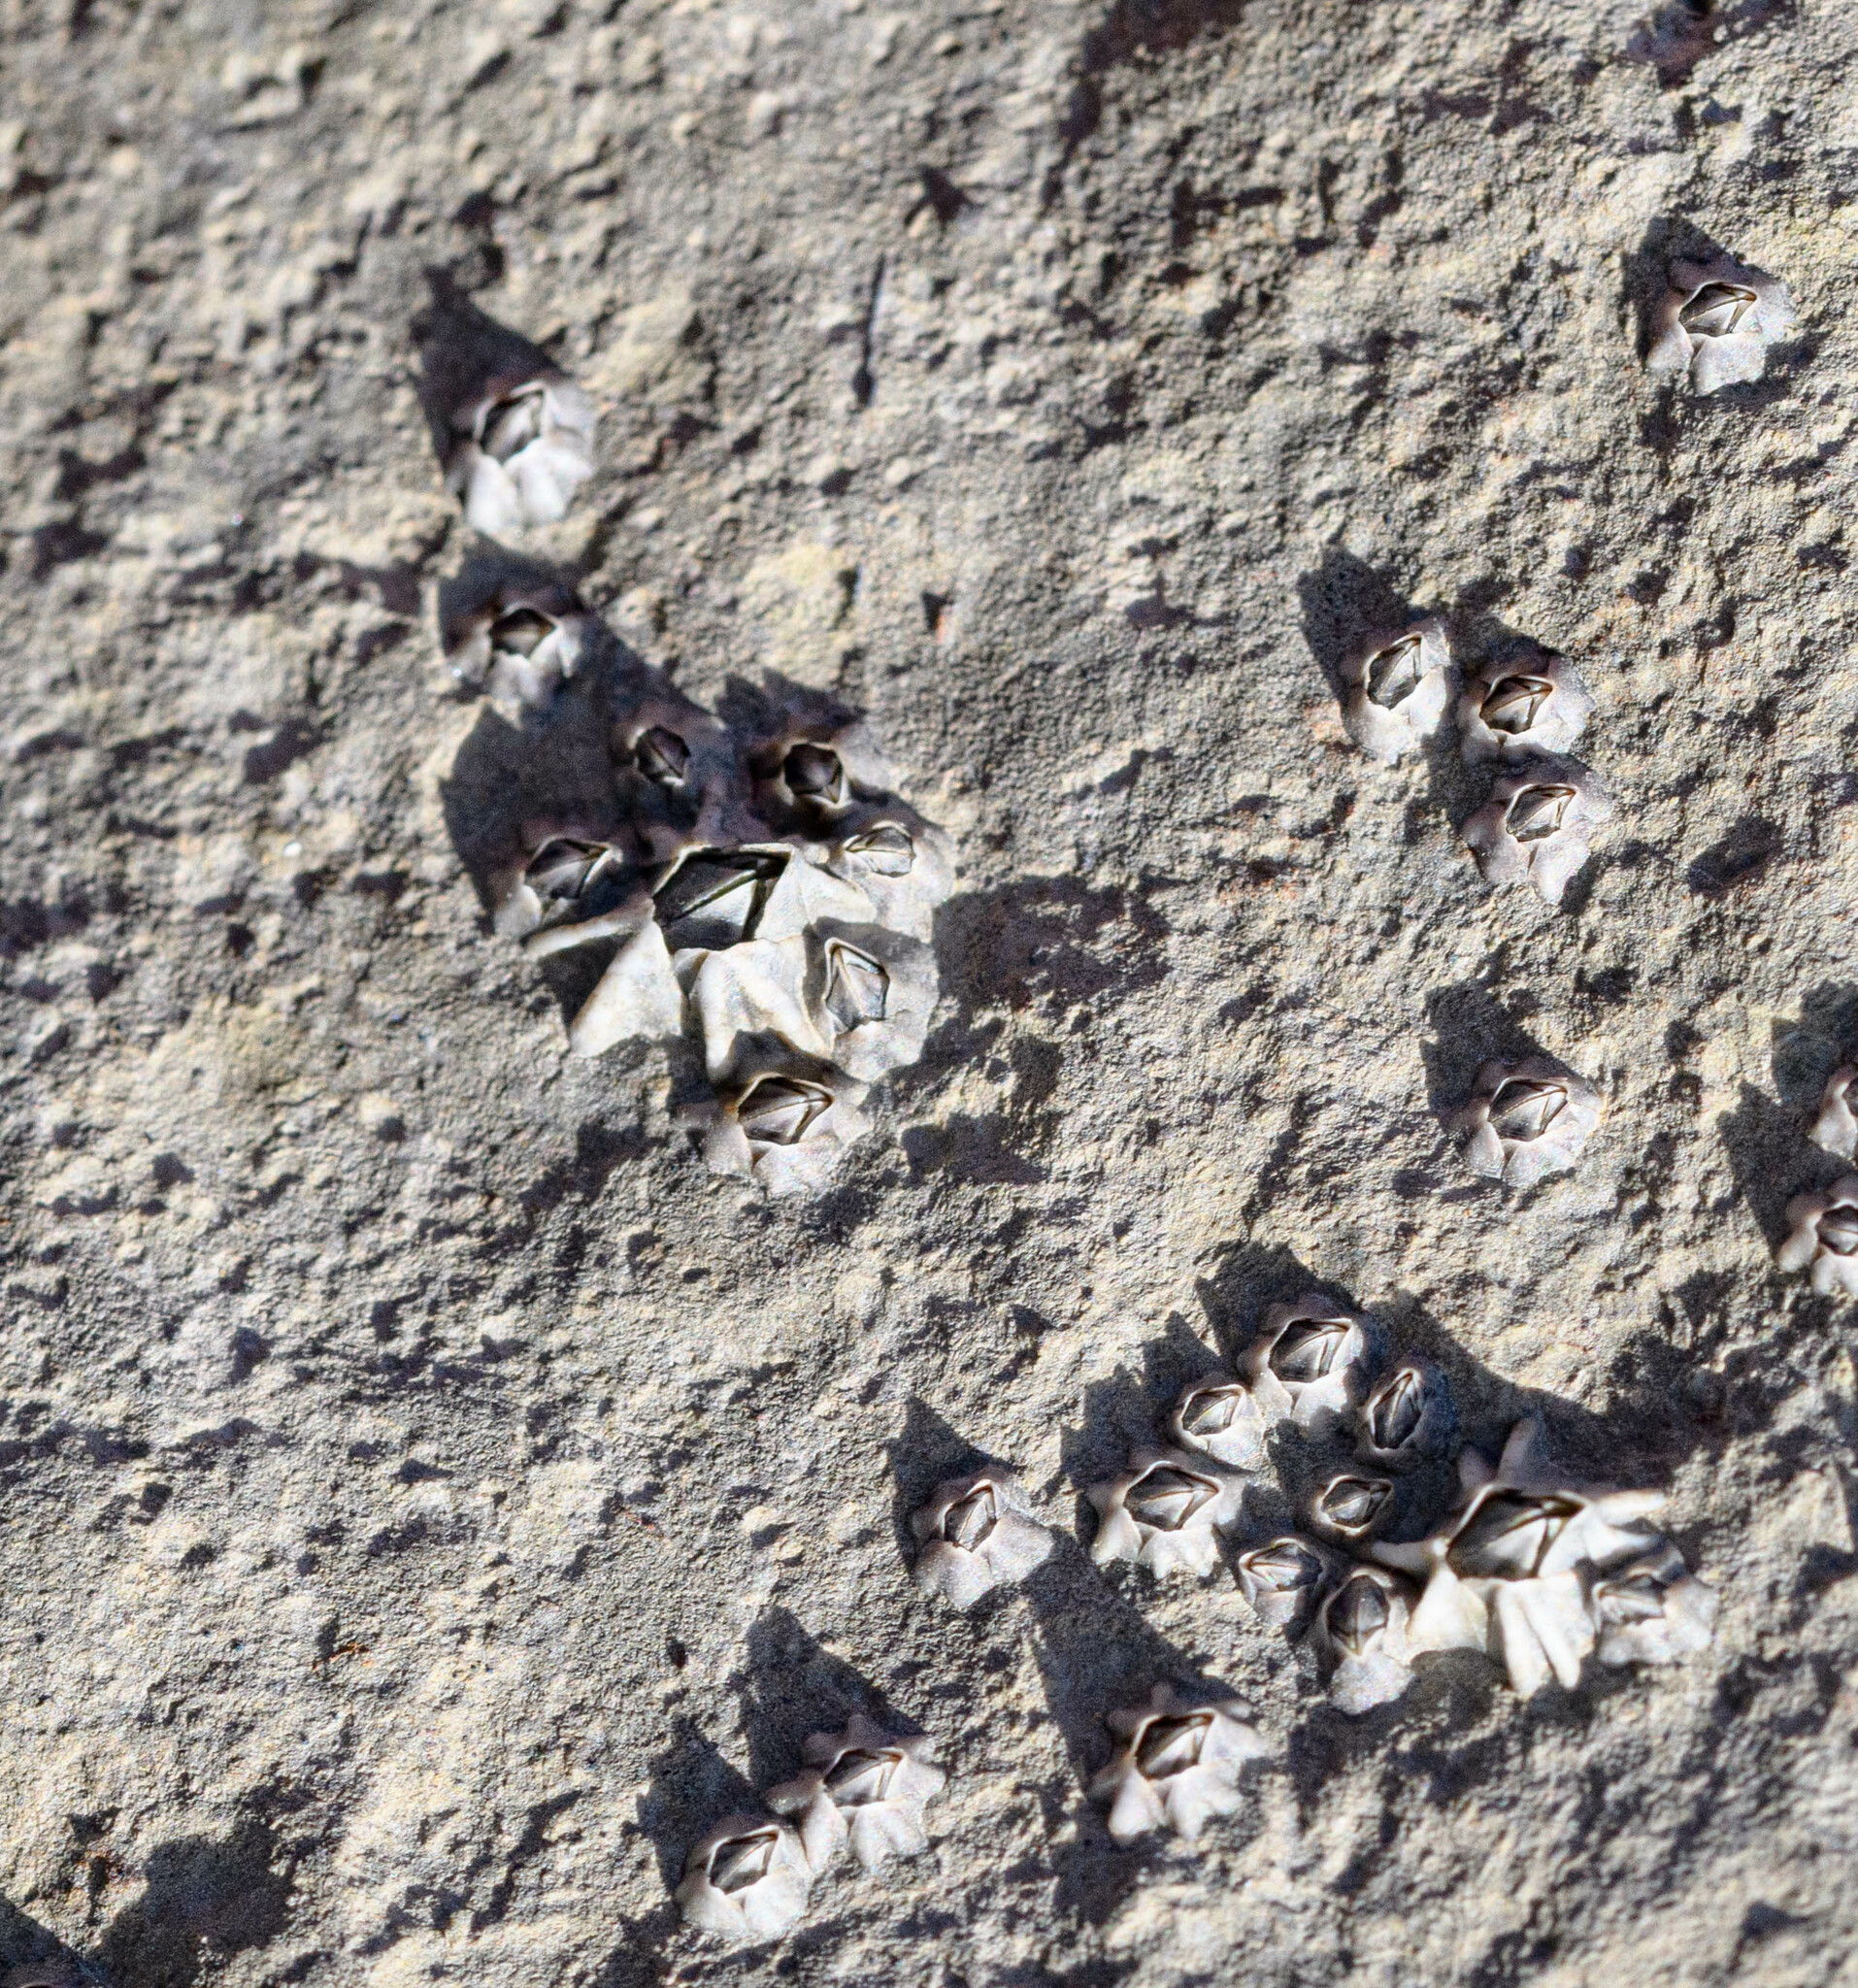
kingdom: Animalia
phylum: Arthropoda
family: Elminiidae
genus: Austrominius
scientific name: Austrominius modestus
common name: Australasian barnacle
